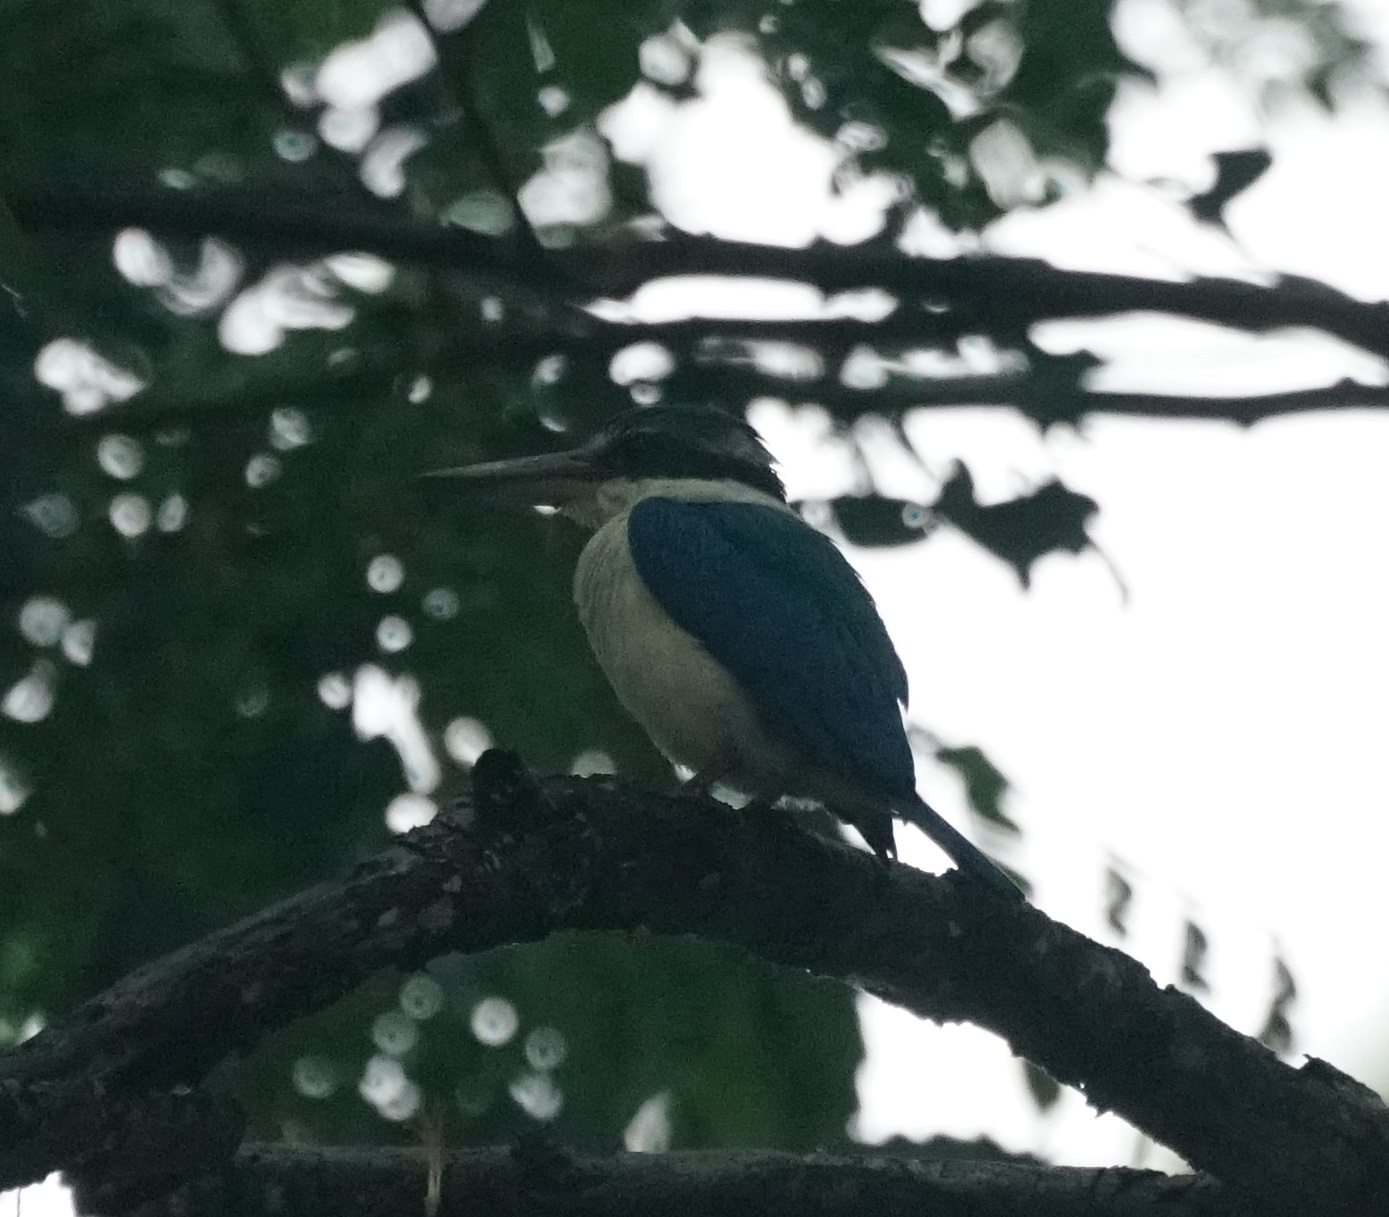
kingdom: Animalia
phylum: Chordata
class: Aves
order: Coraciiformes
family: Alcedinidae
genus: Todiramphus
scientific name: Todiramphus chloris
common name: Collared kingfisher
